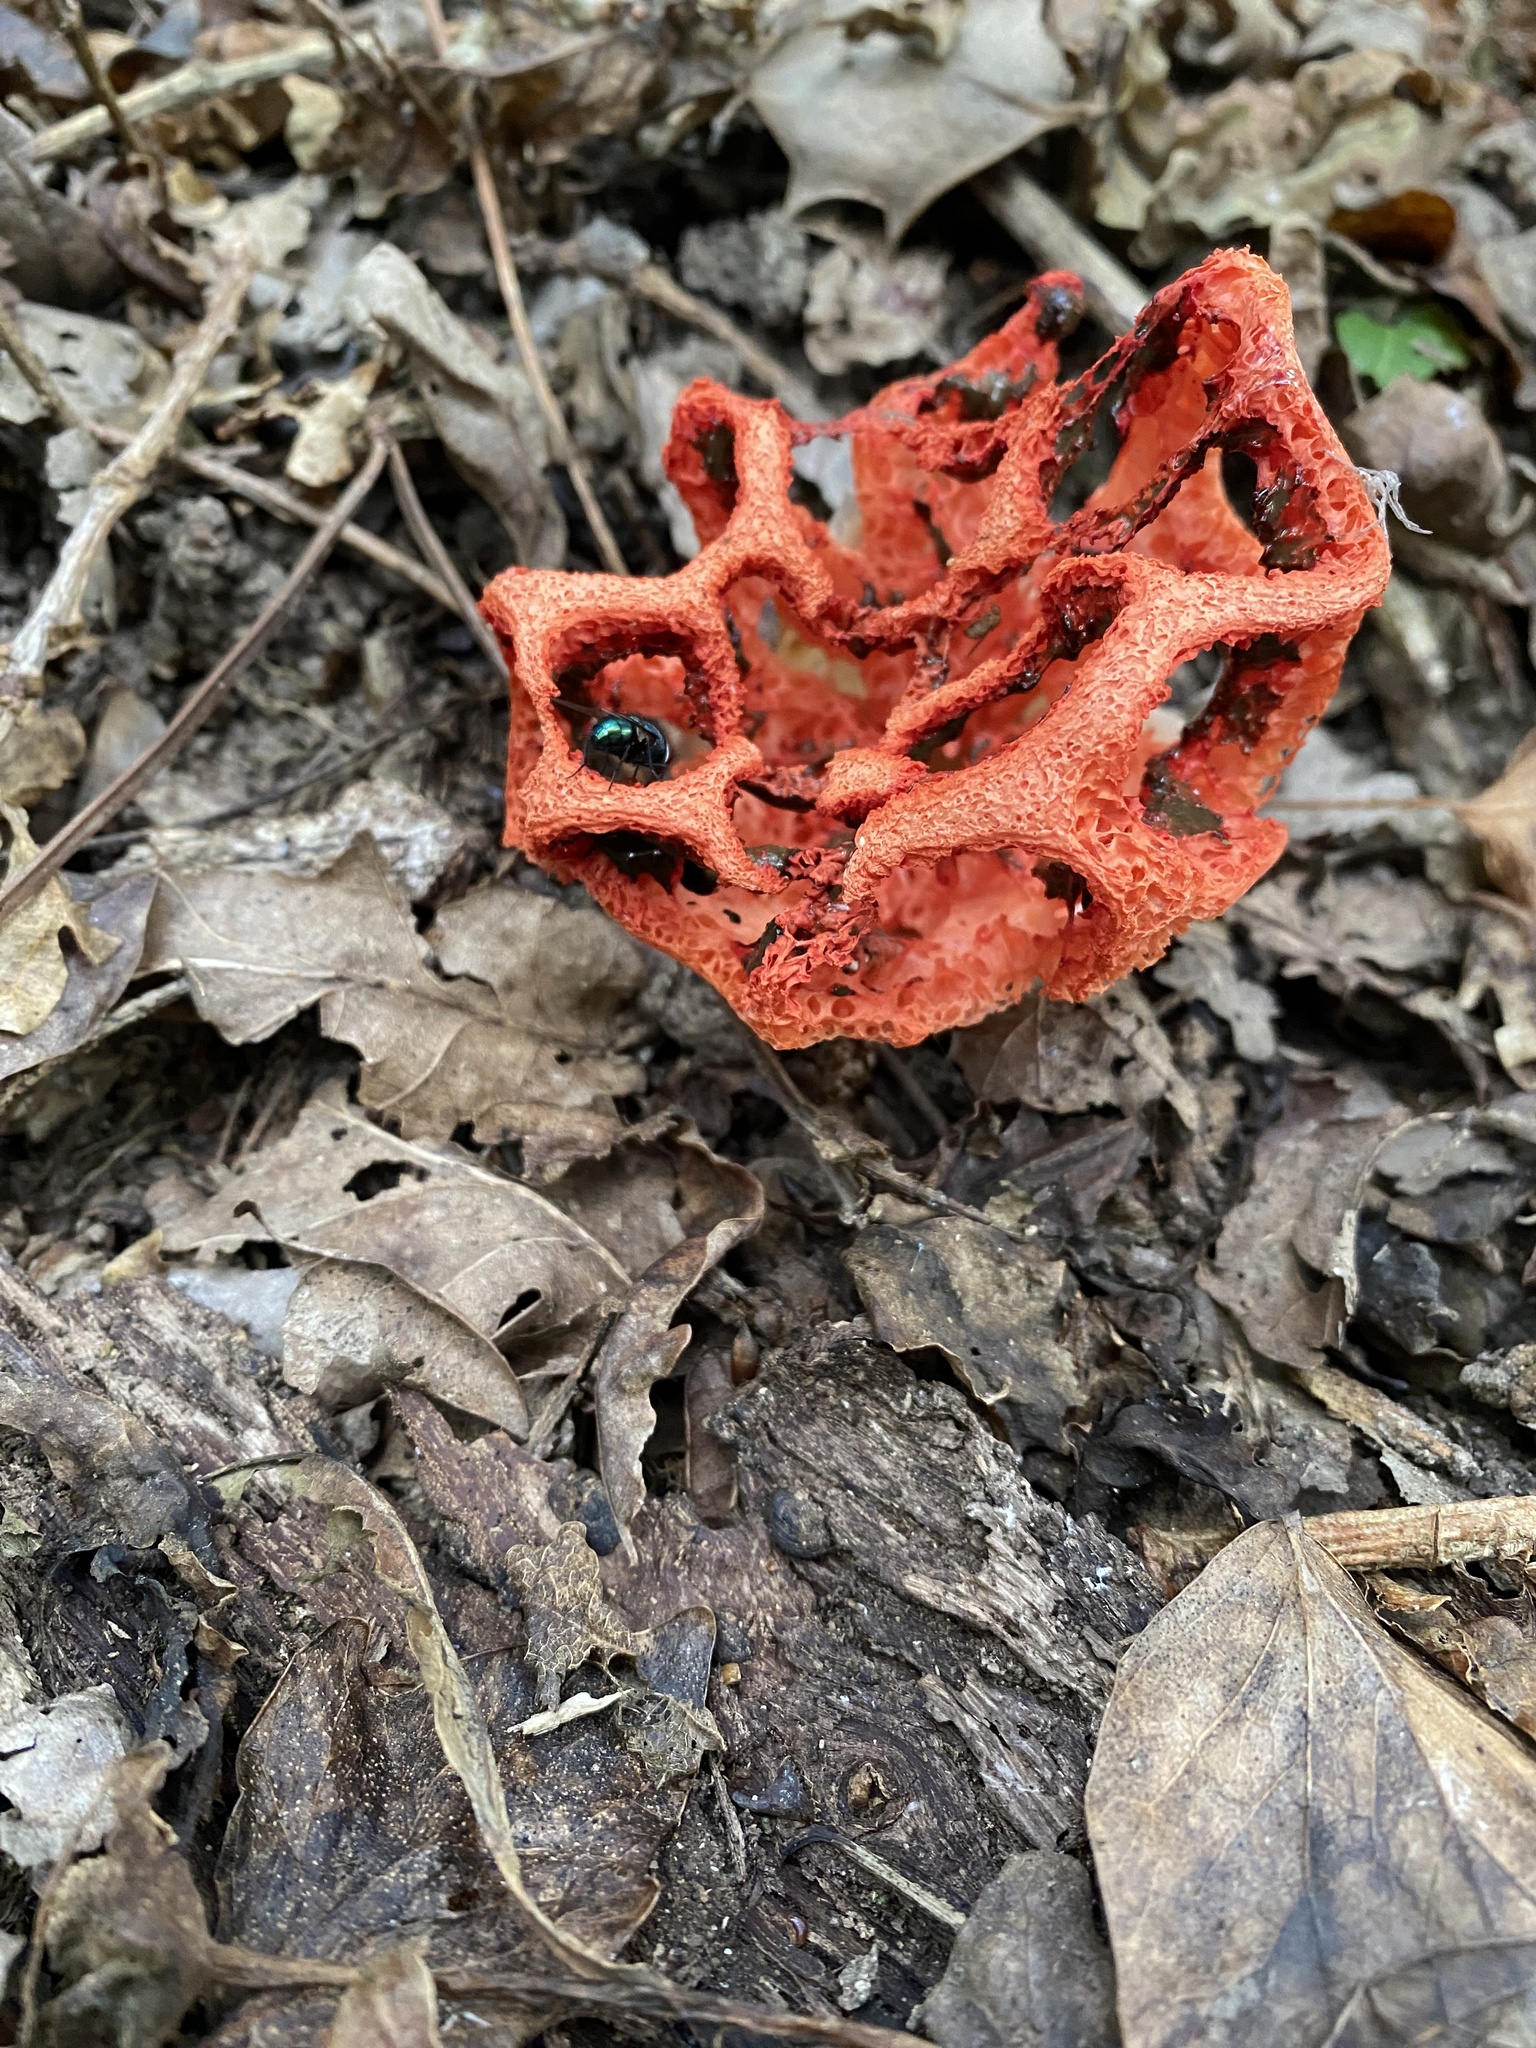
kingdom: Fungi
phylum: Basidiomycota
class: Agaricomycetes
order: Phallales
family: Phallaceae
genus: Clathrus
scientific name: Clathrus ruber
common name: Red cage
